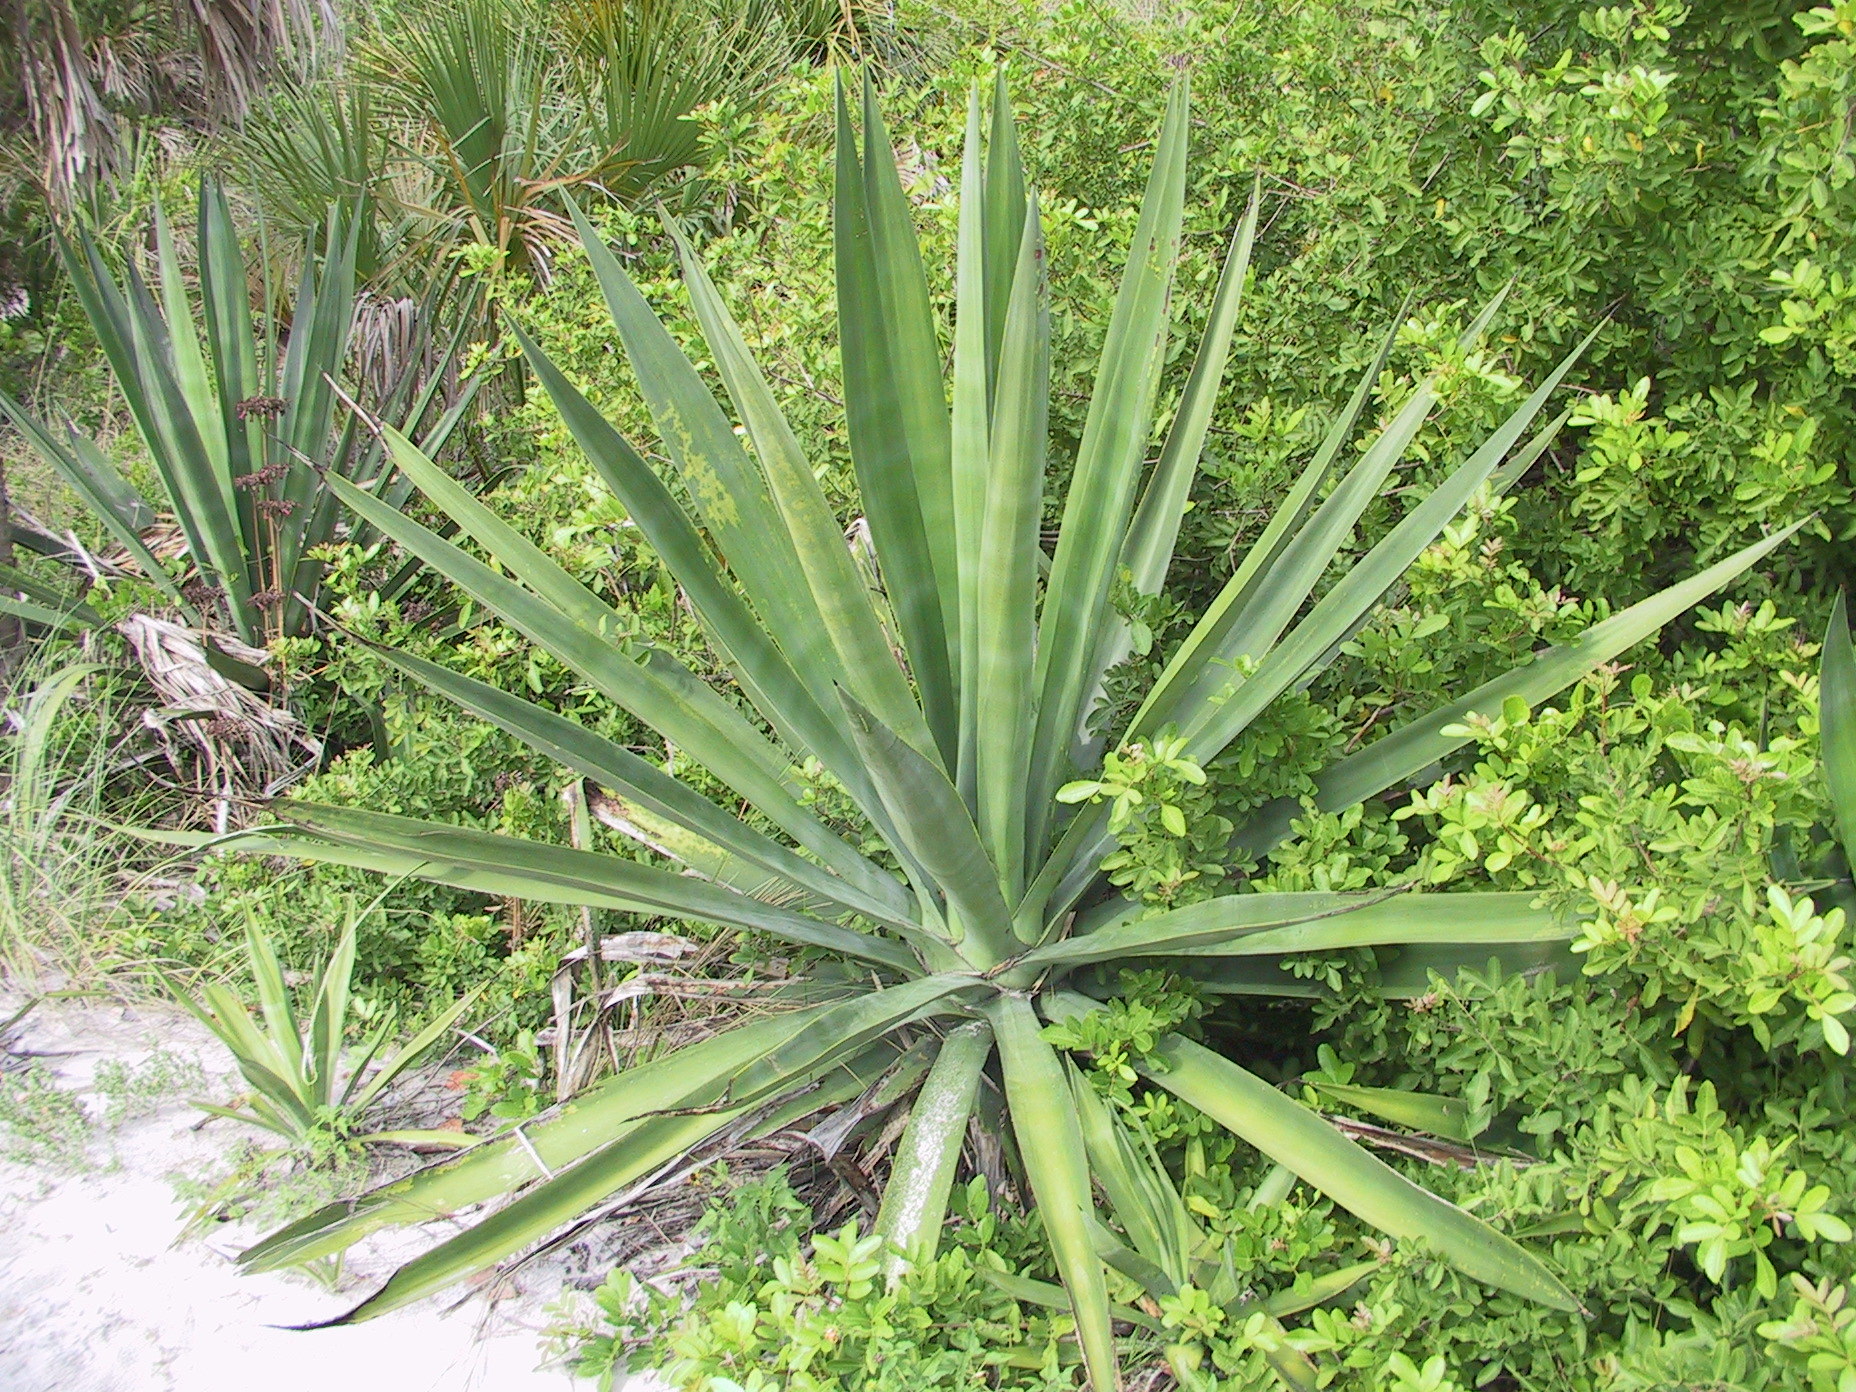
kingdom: Plantae
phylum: Tracheophyta
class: Liliopsida
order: Asparagales
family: Asparagaceae
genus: Agave
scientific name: Agave sisalana
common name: Sisal hemp
